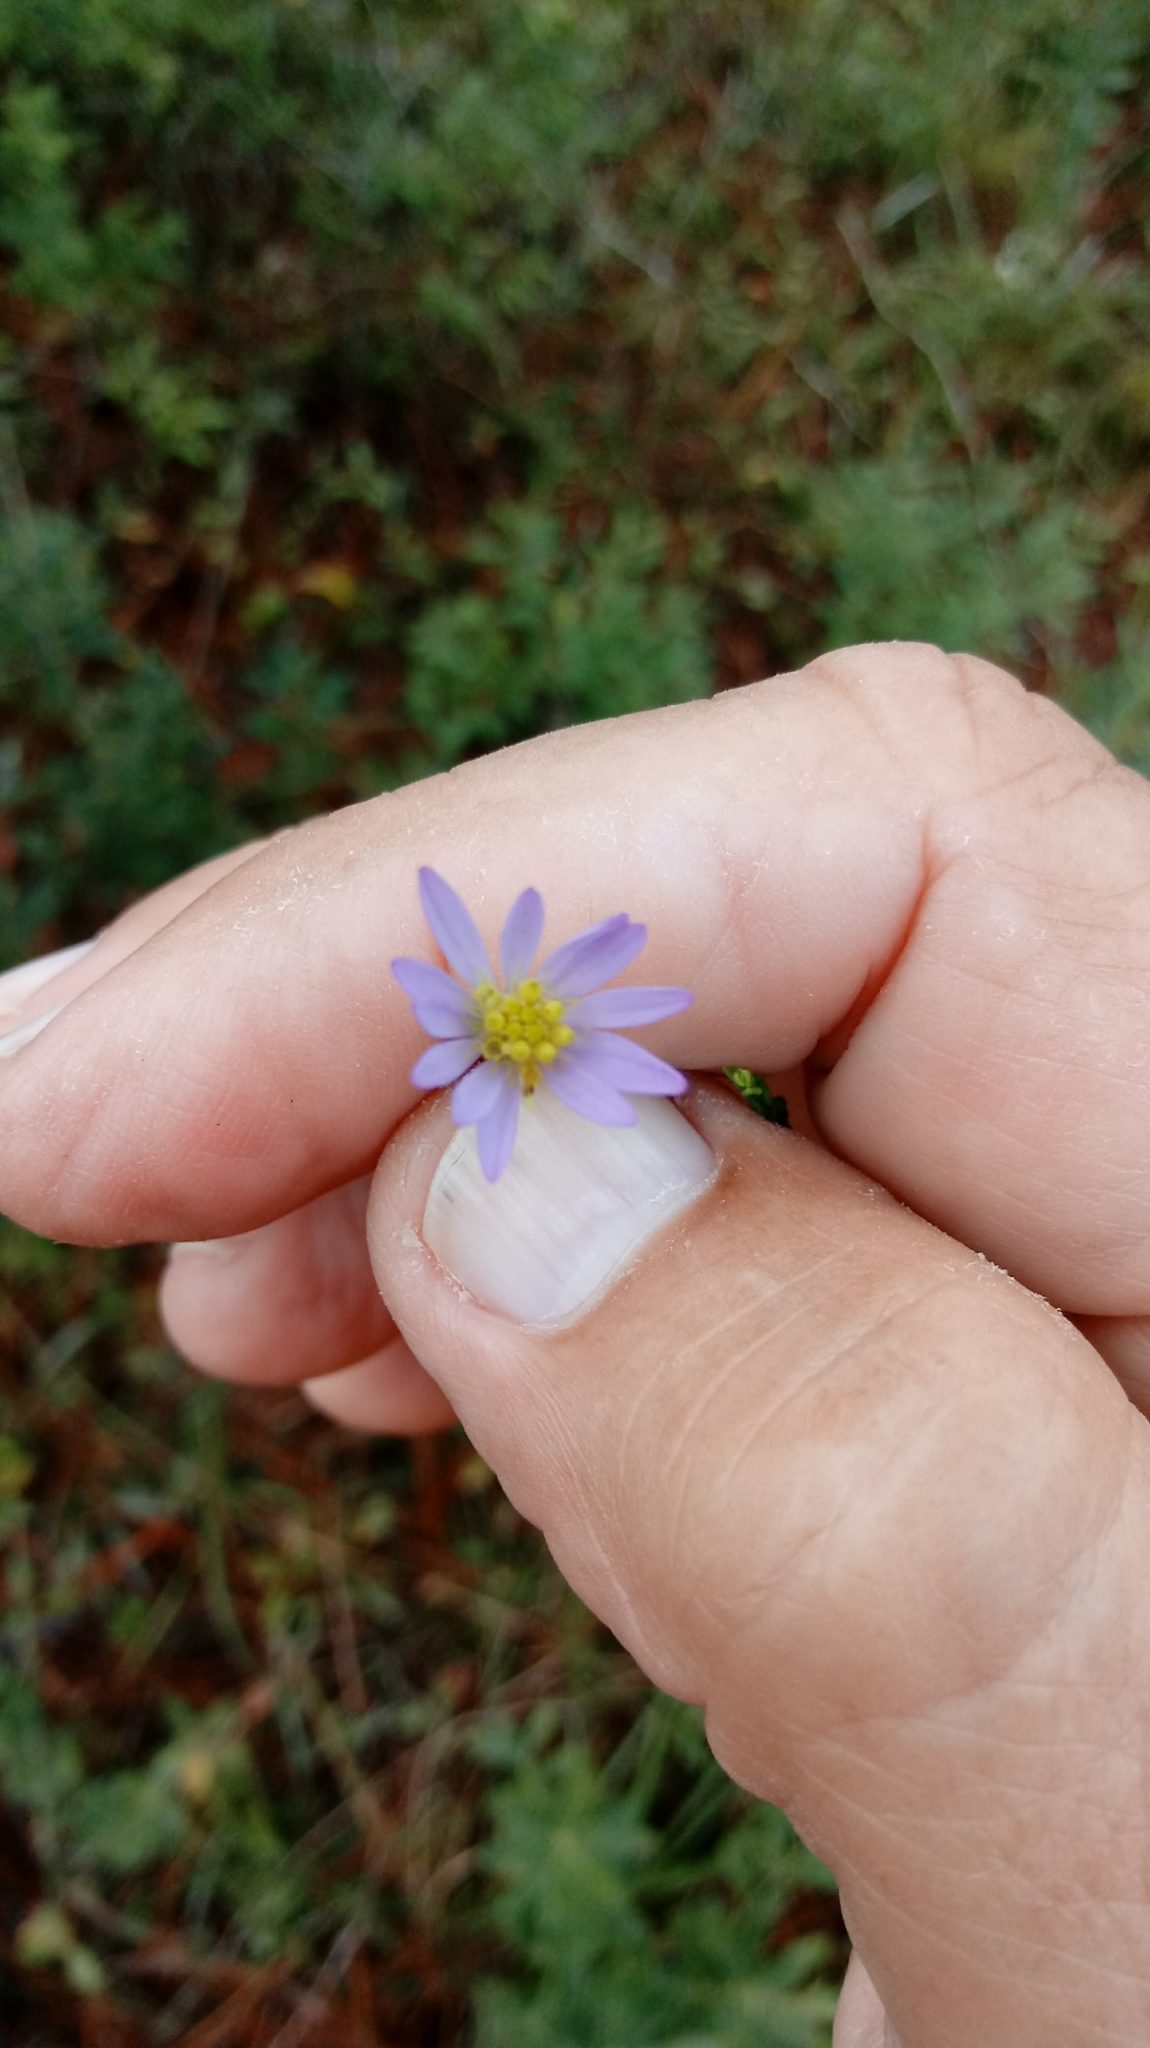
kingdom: Plantae
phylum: Tracheophyta
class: Magnoliopsida
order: Asterales
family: Asteraceae
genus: Symphyotrichum
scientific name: Symphyotrichum adnatum
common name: Scale-leaf aster
